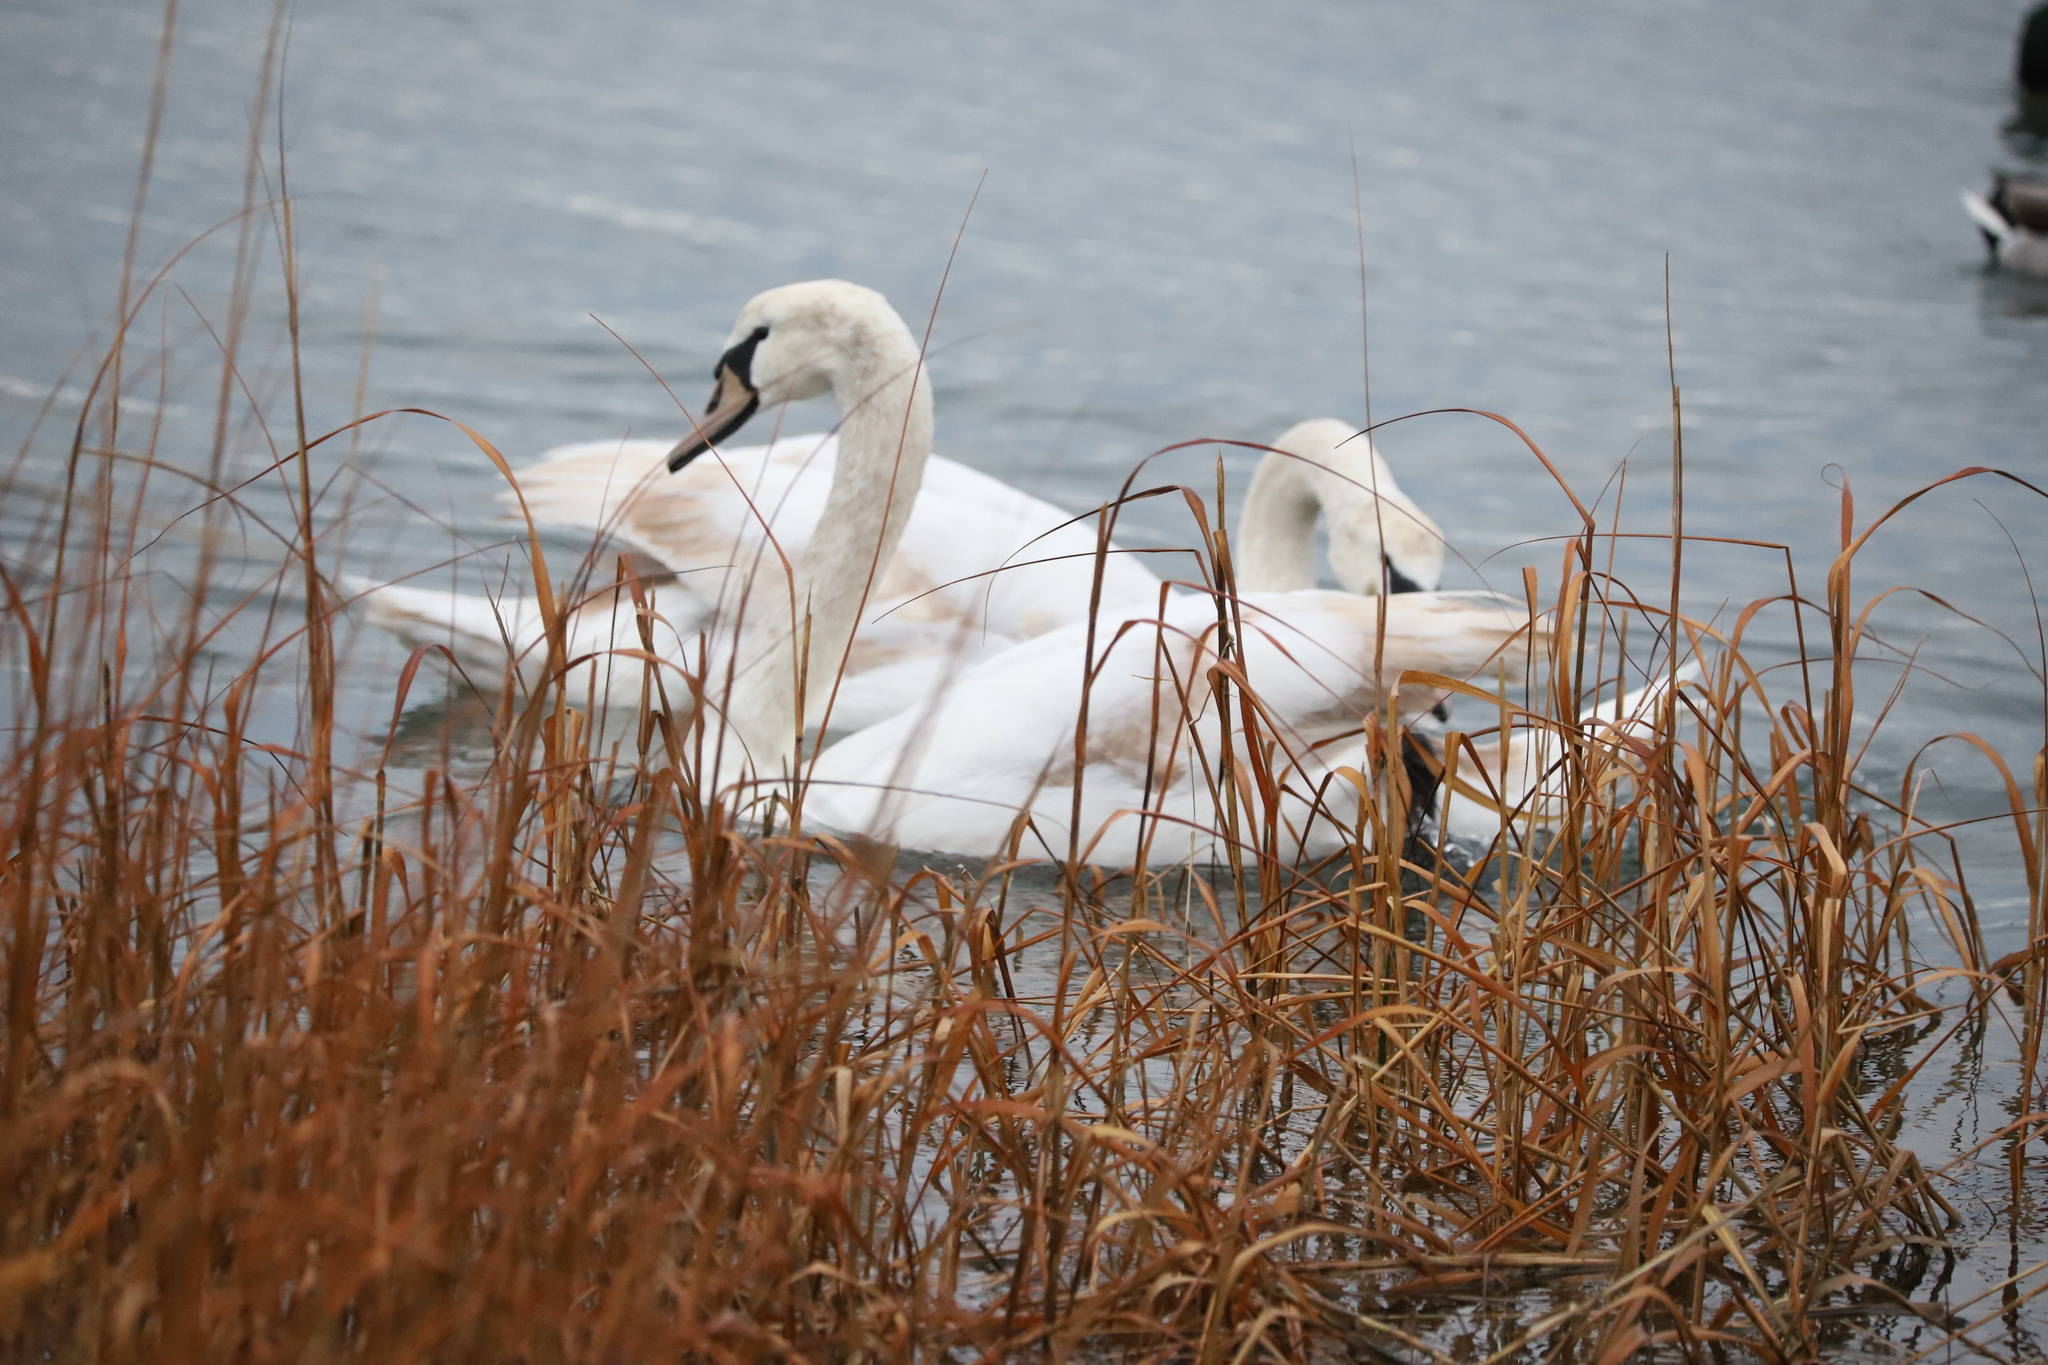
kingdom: Animalia
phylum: Chordata
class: Aves
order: Anseriformes
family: Anatidae
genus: Cygnus
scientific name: Cygnus olor
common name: Mute swan
